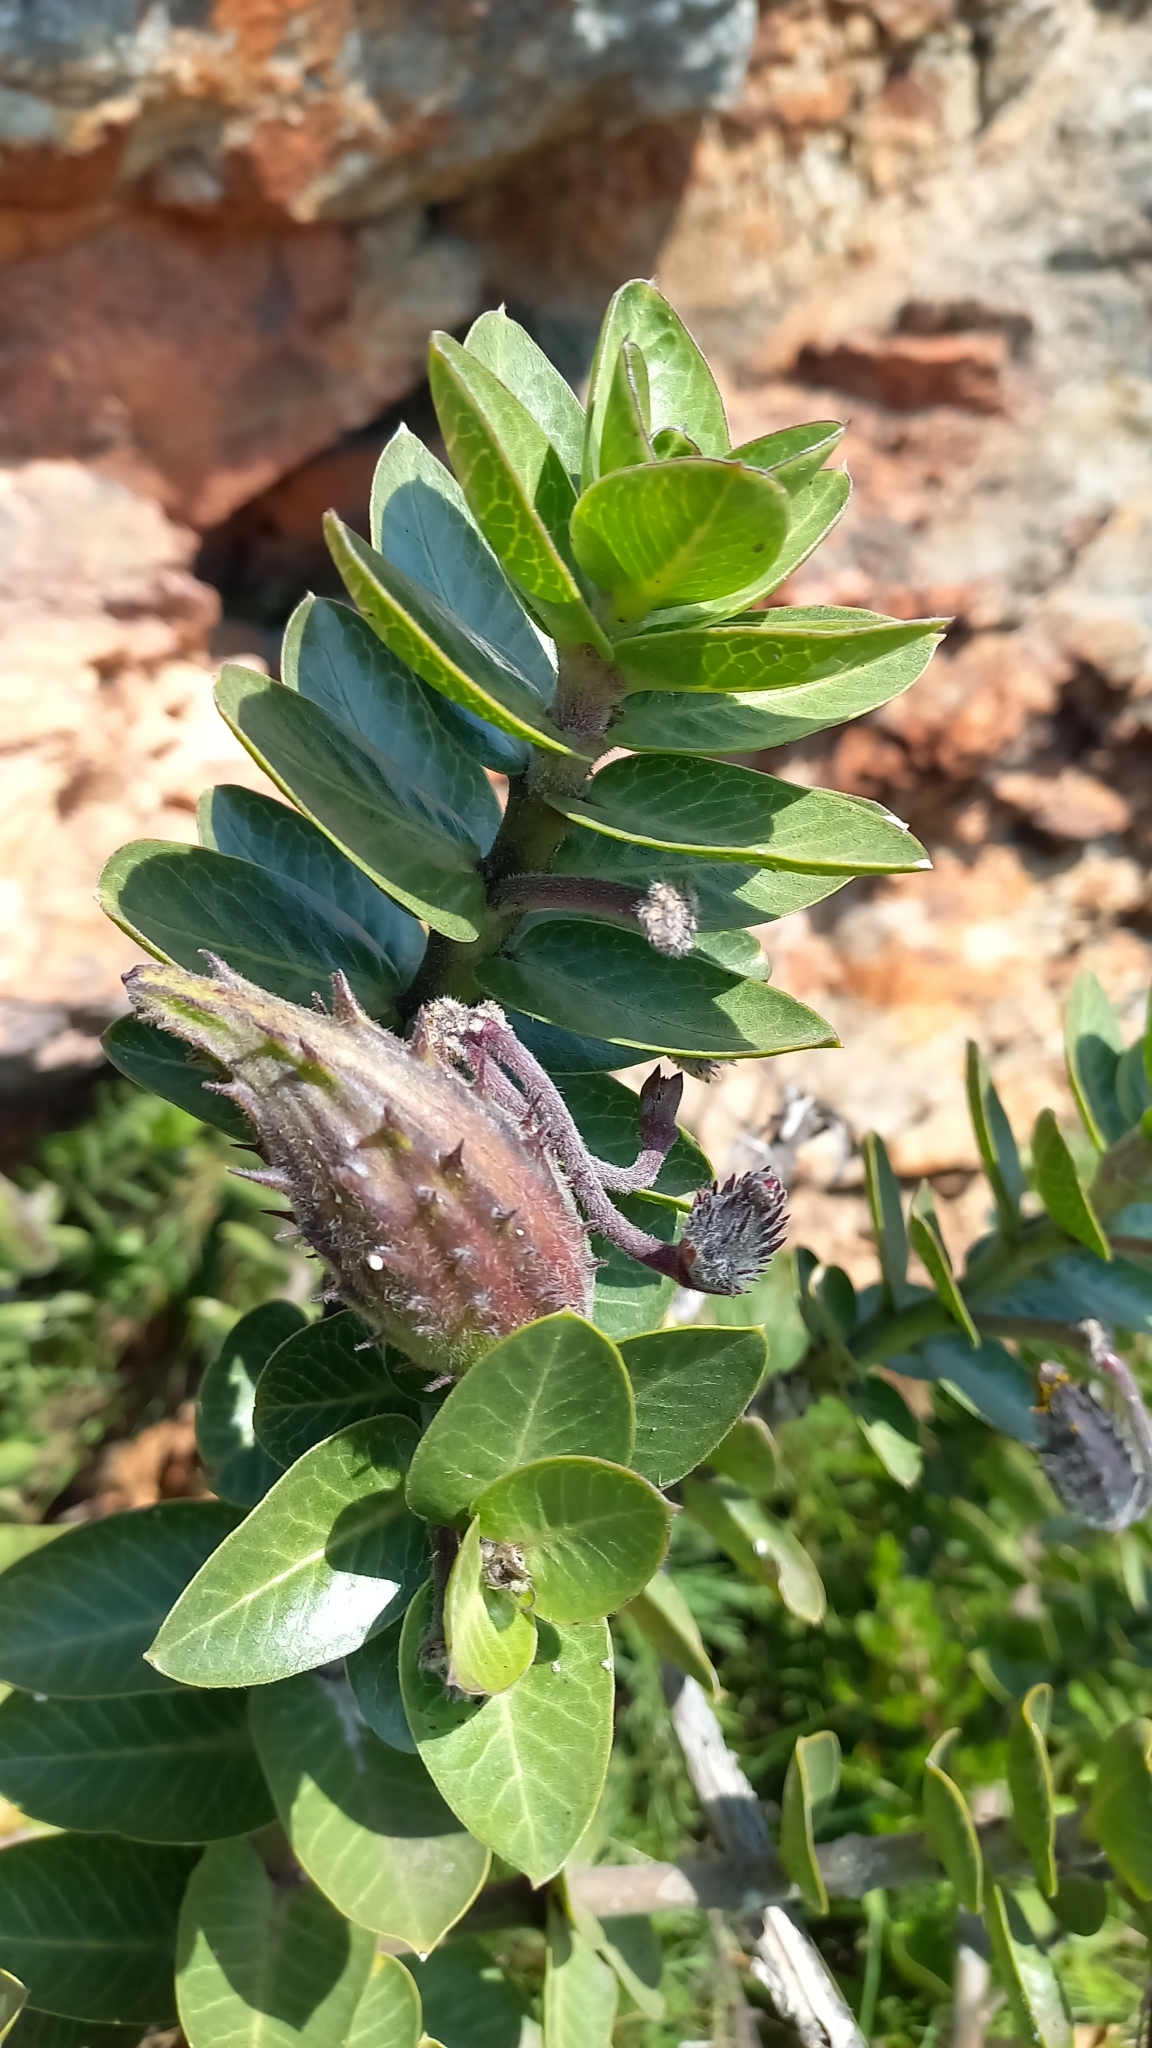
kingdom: Plantae
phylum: Tracheophyta
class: Magnoliopsida
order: Gentianales
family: Apocynaceae
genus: Gomphocarpus
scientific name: Gomphocarpus cancellatus
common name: Wild cotton
